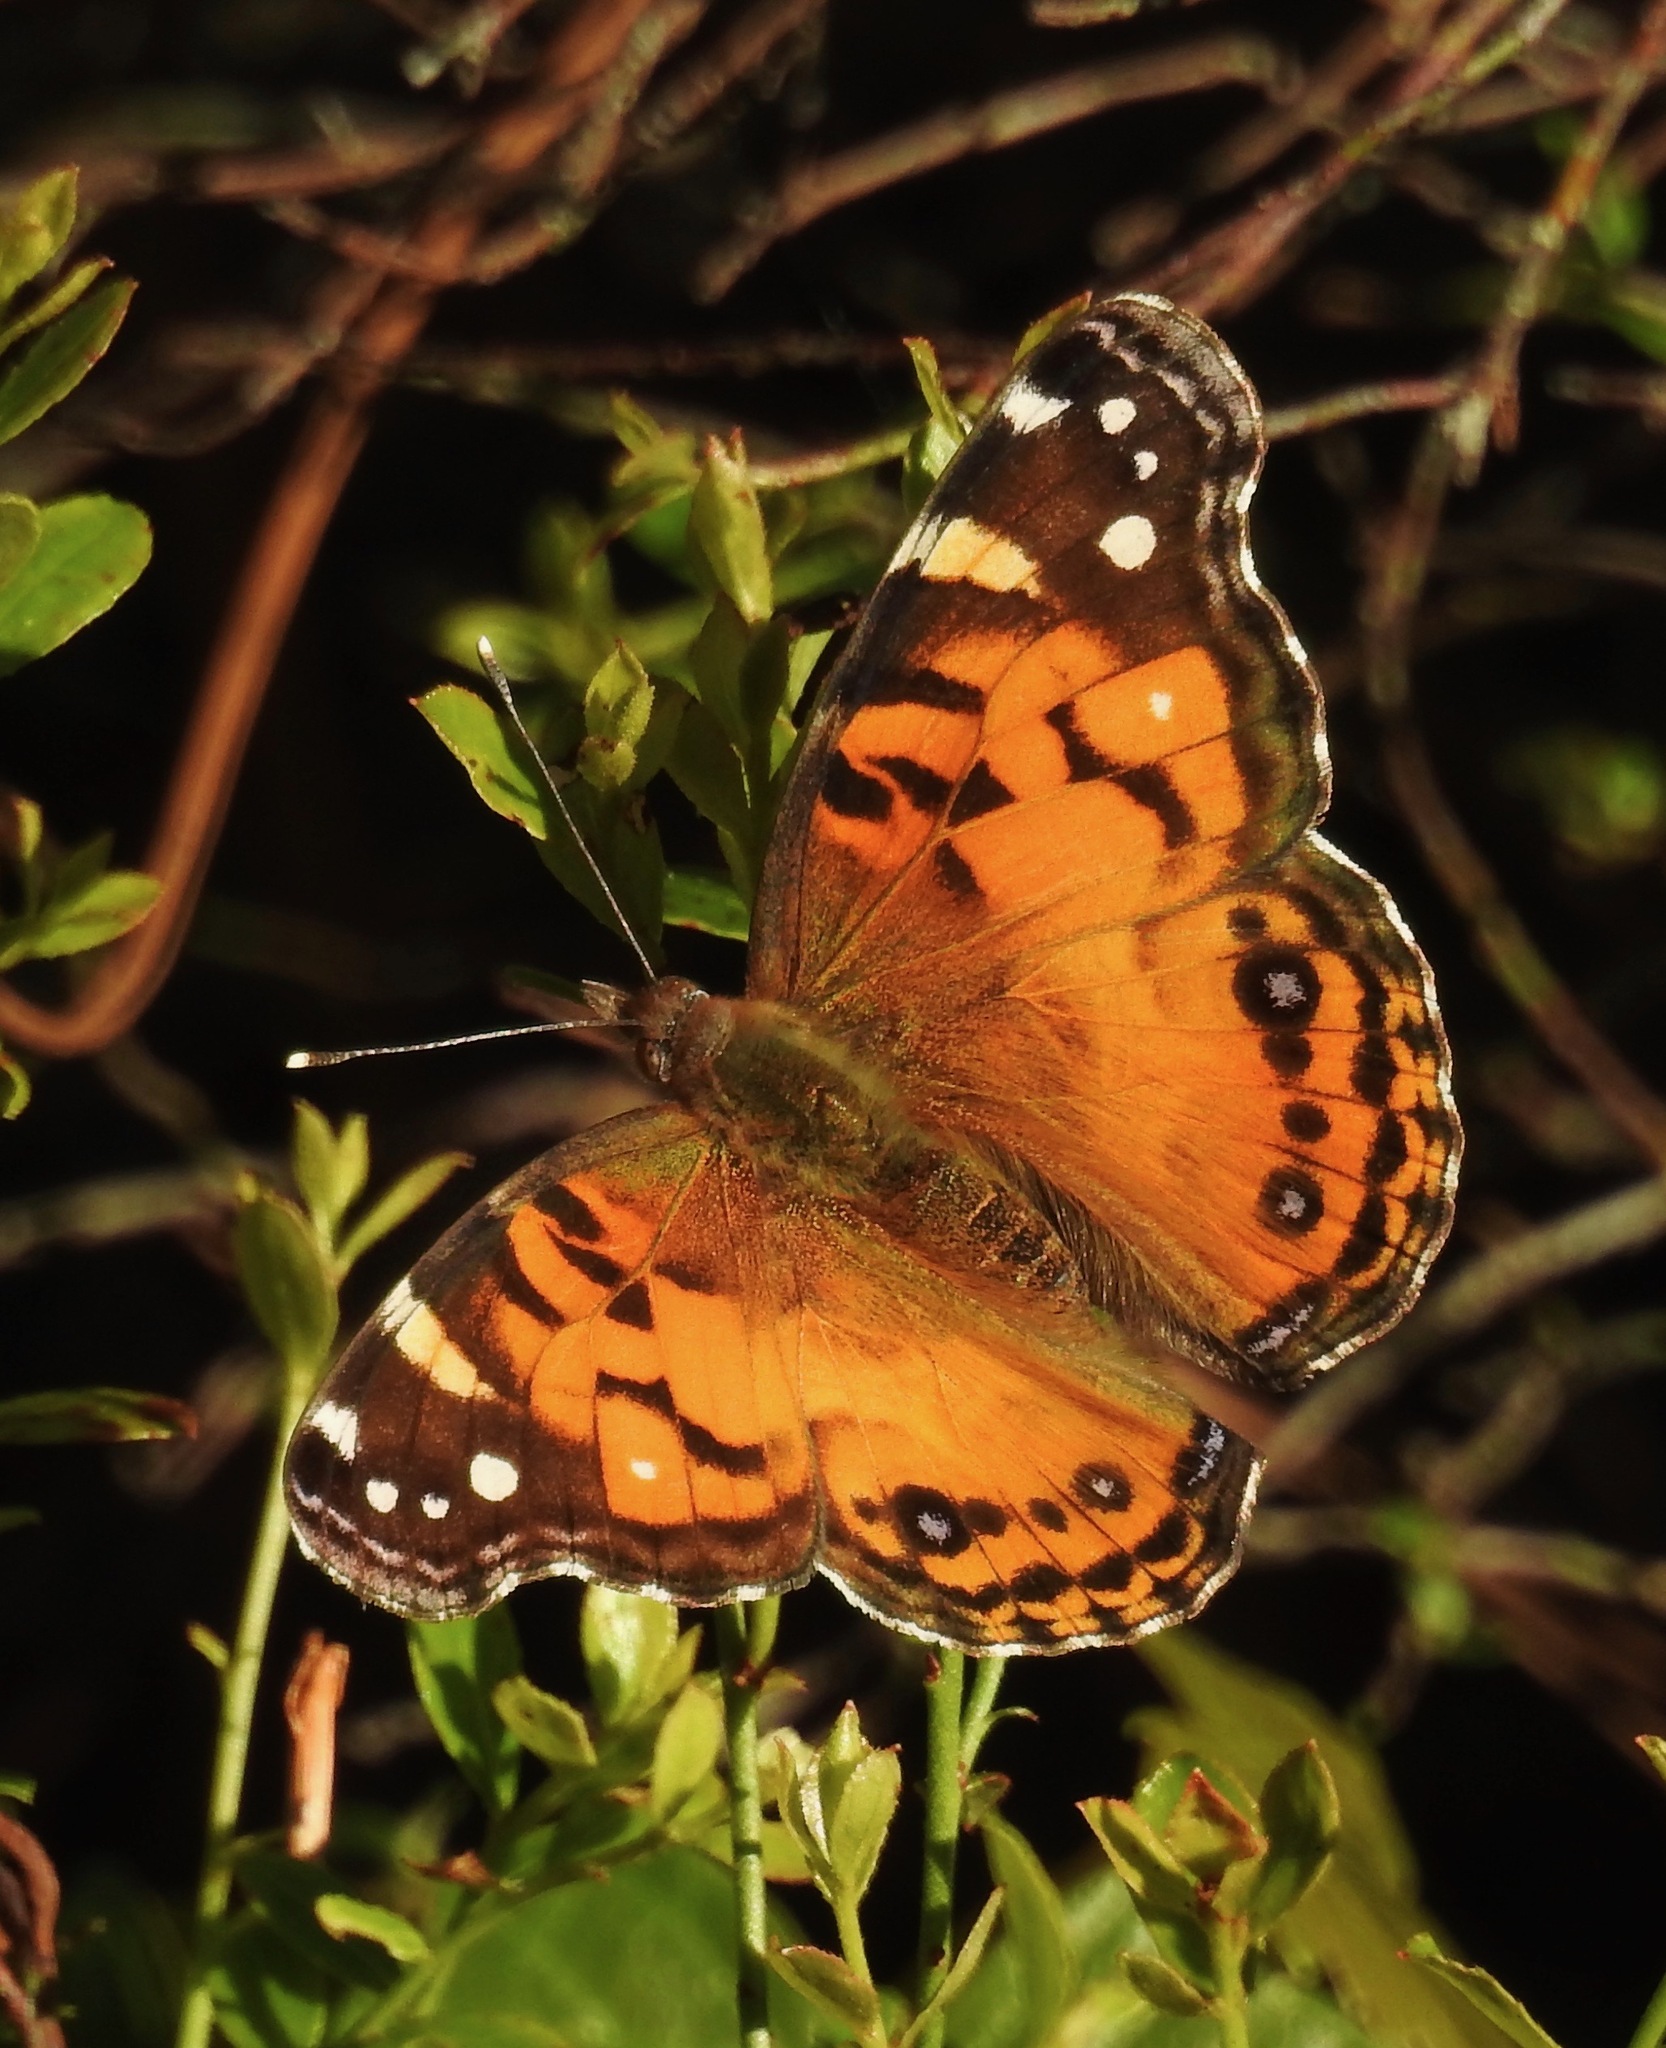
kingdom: Animalia
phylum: Arthropoda
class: Insecta
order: Lepidoptera
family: Nymphalidae
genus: Vanessa
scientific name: Vanessa virginiensis
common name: American lady
